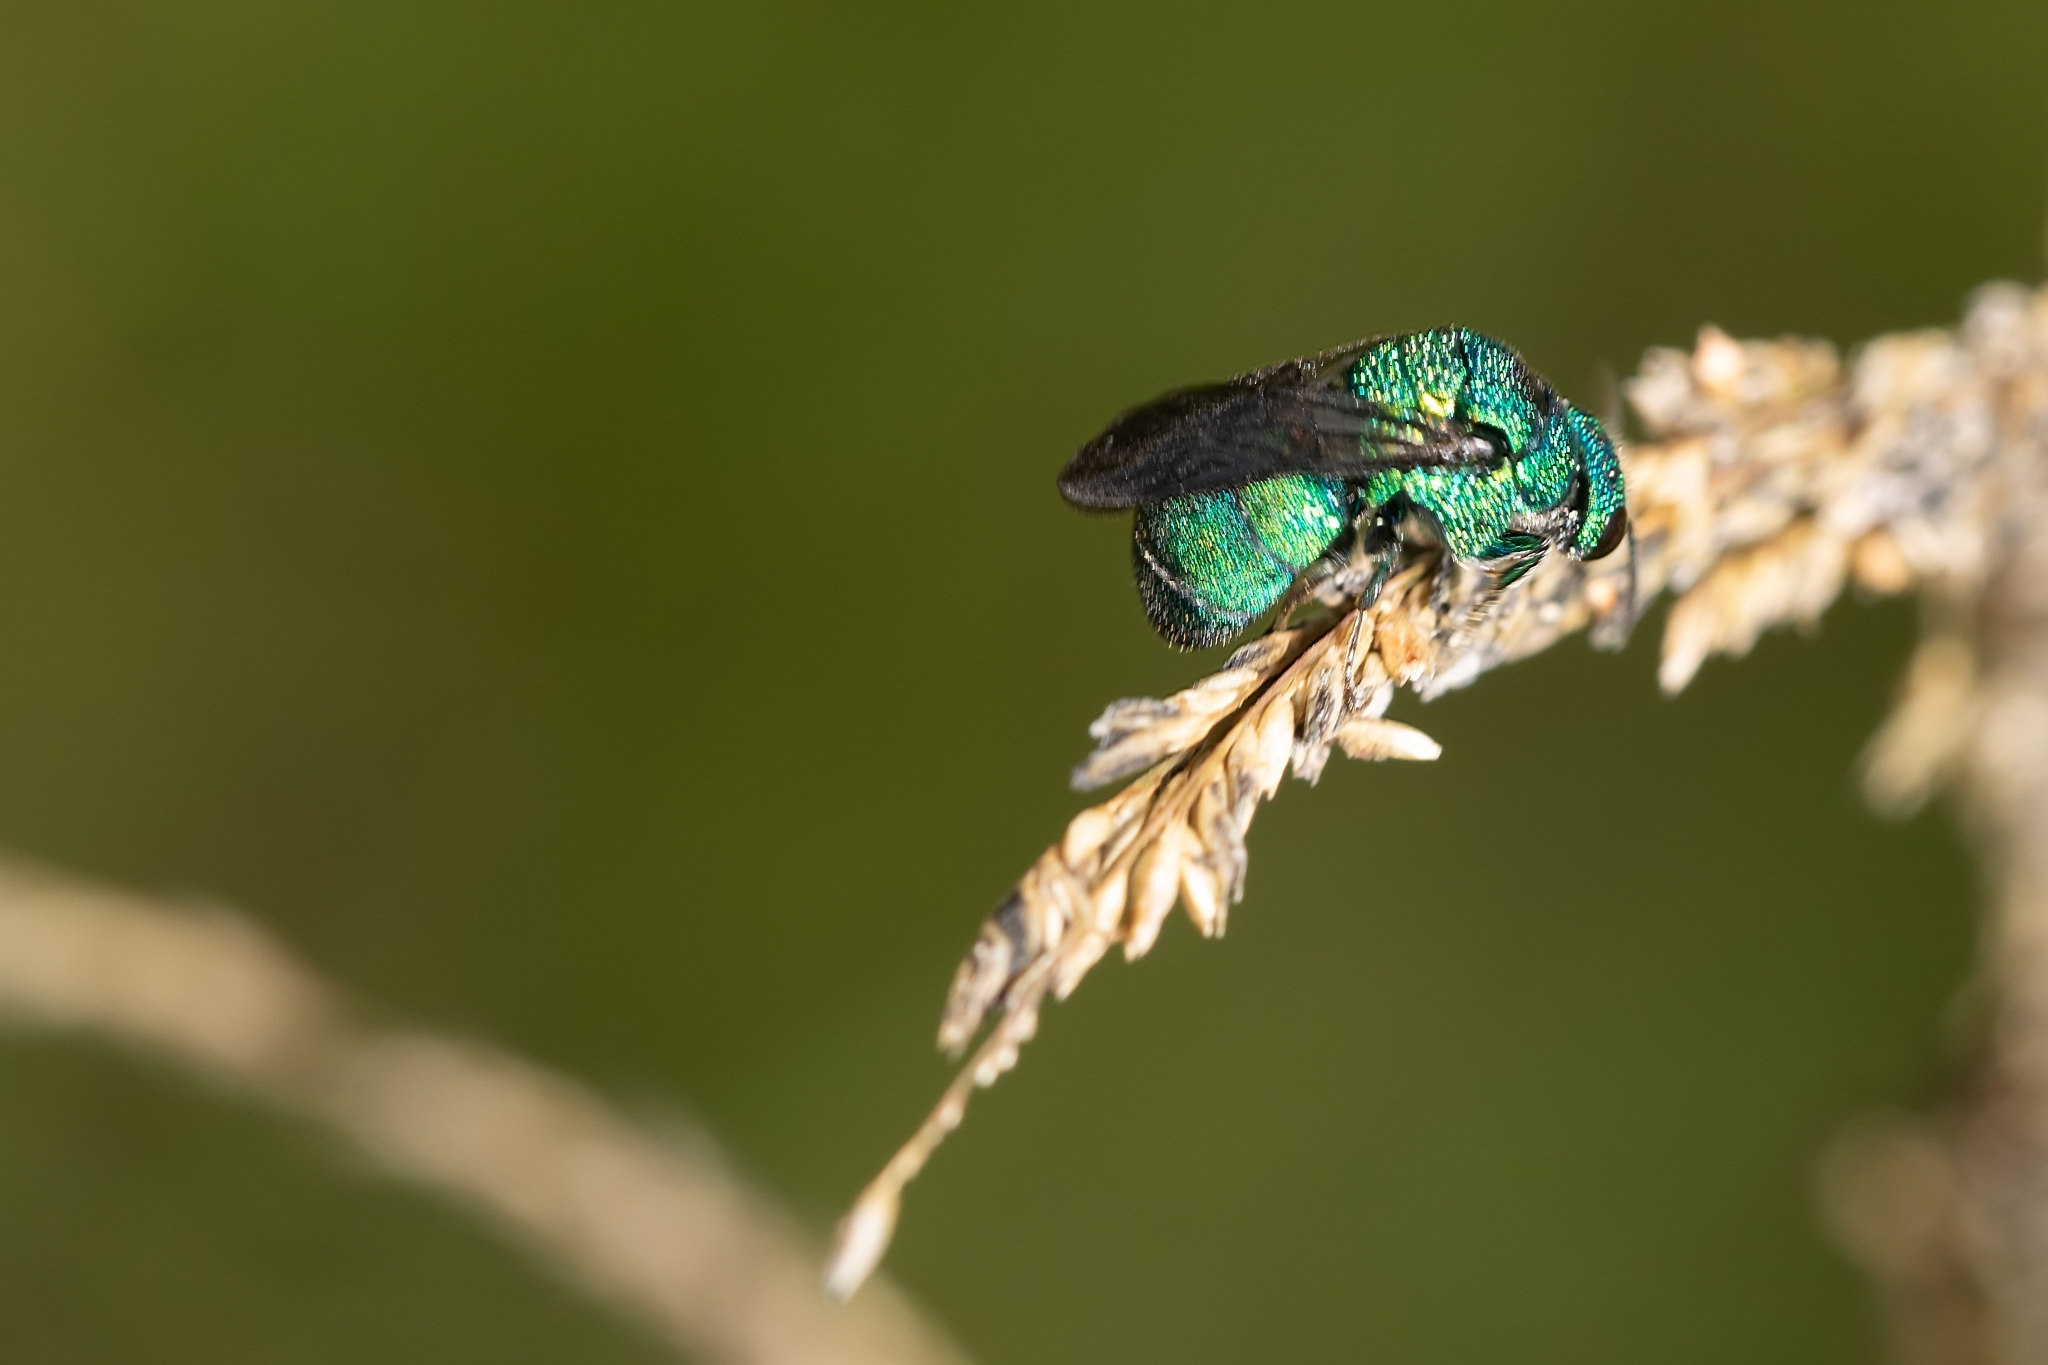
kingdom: Animalia
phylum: Arthropoda
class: Insecta
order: Hymenoptera
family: Chrysididae
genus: Holopyga
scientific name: Holopyga
